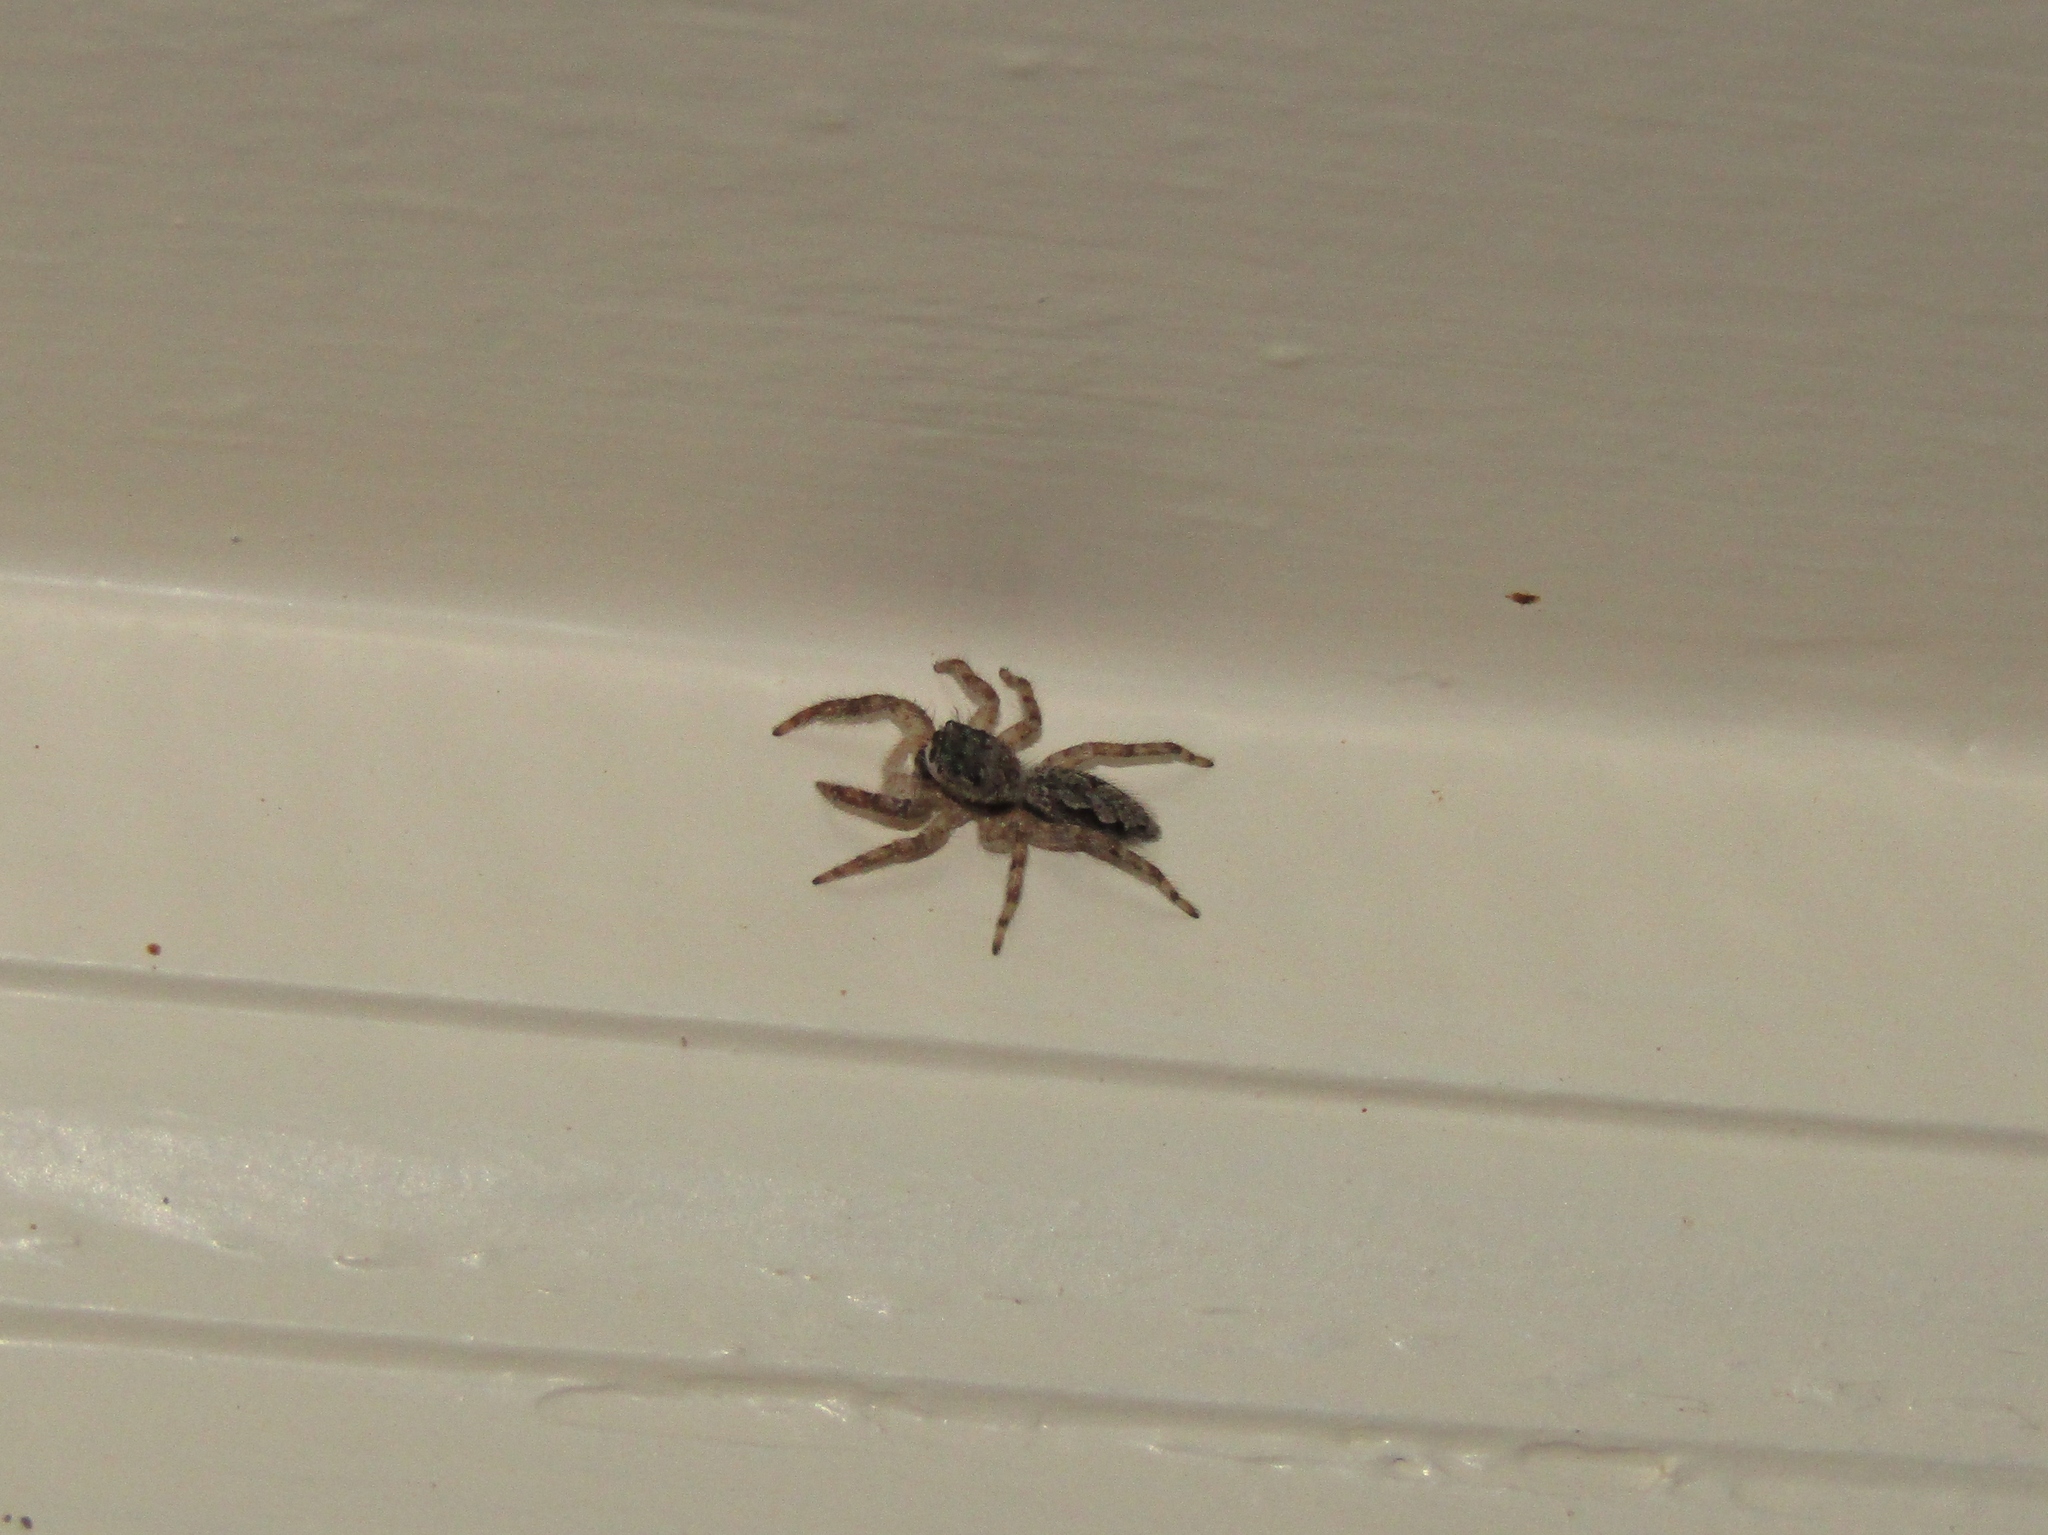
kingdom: Animalia
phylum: Arthropoda
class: Arachnida
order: Araneae
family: Salticidae
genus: Platycryptus
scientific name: Platycryptus undatus
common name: Tan jumping spider
